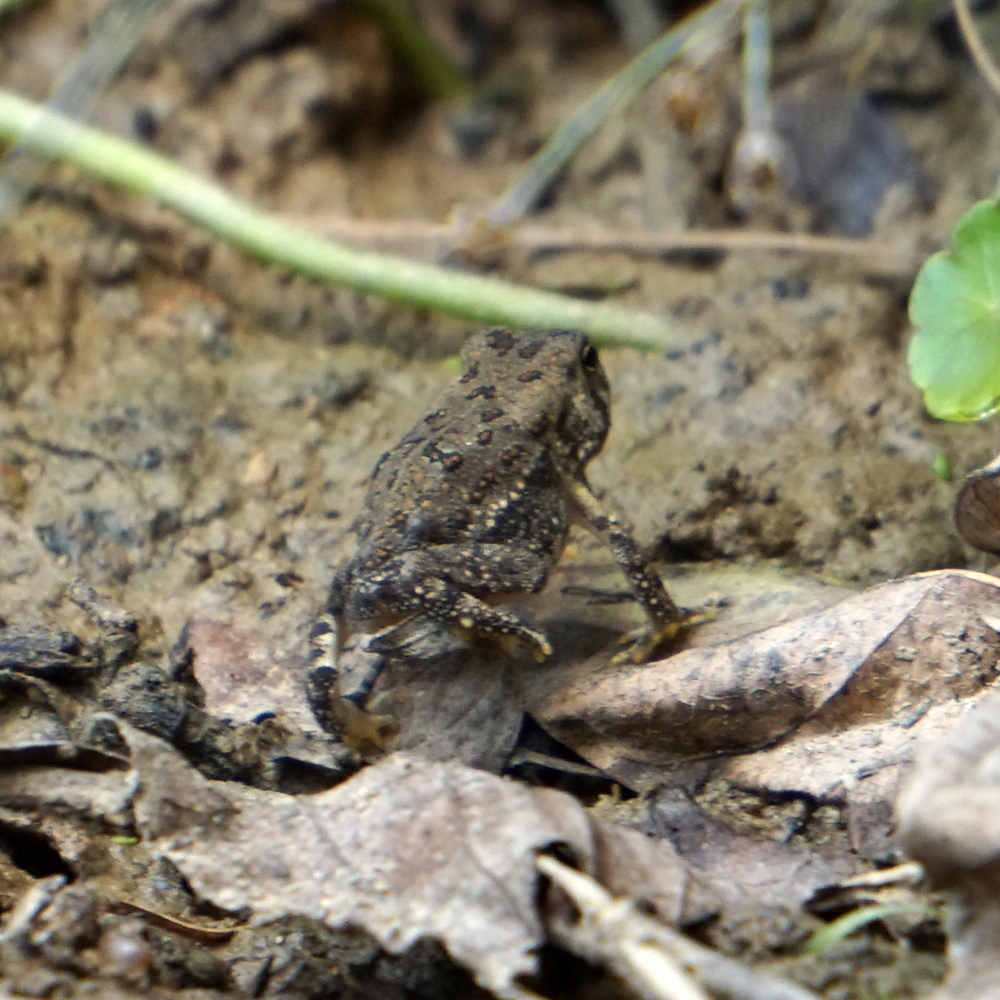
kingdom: Animalia
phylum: Chordata
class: Amphibia
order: Anura
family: Bufonidae
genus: Anaxyrus
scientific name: Anaxyrus fowleri
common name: Fowler's toad
